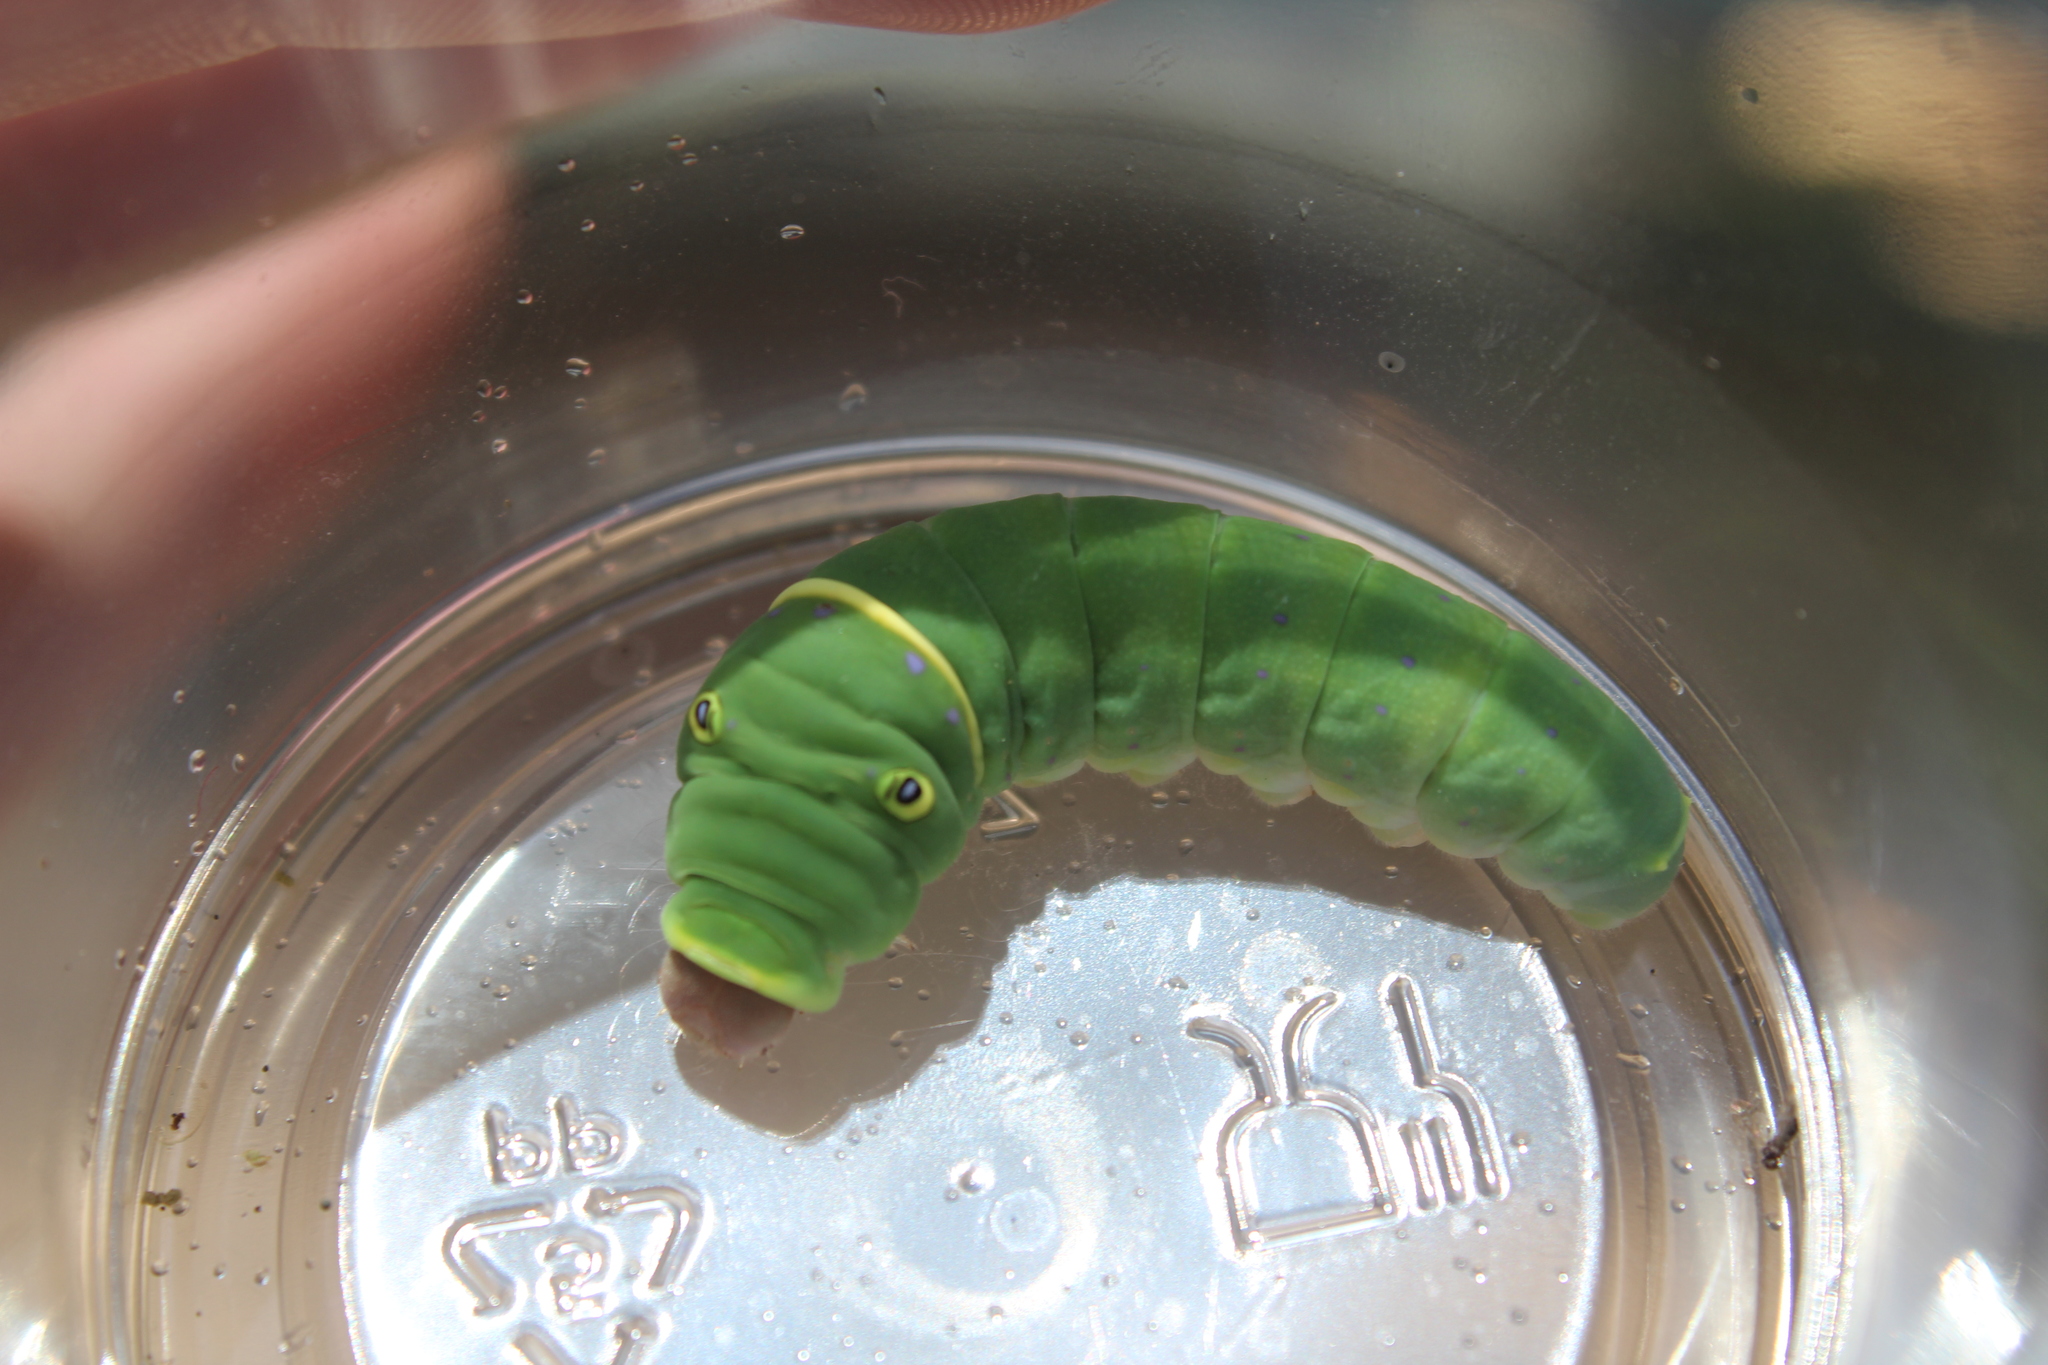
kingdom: Animalia
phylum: Arthropoda
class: Insecta
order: Lepidoptera
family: Papilionidae
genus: Papilio
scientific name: Papilio canadensis
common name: Canadian tiger swallowtail
